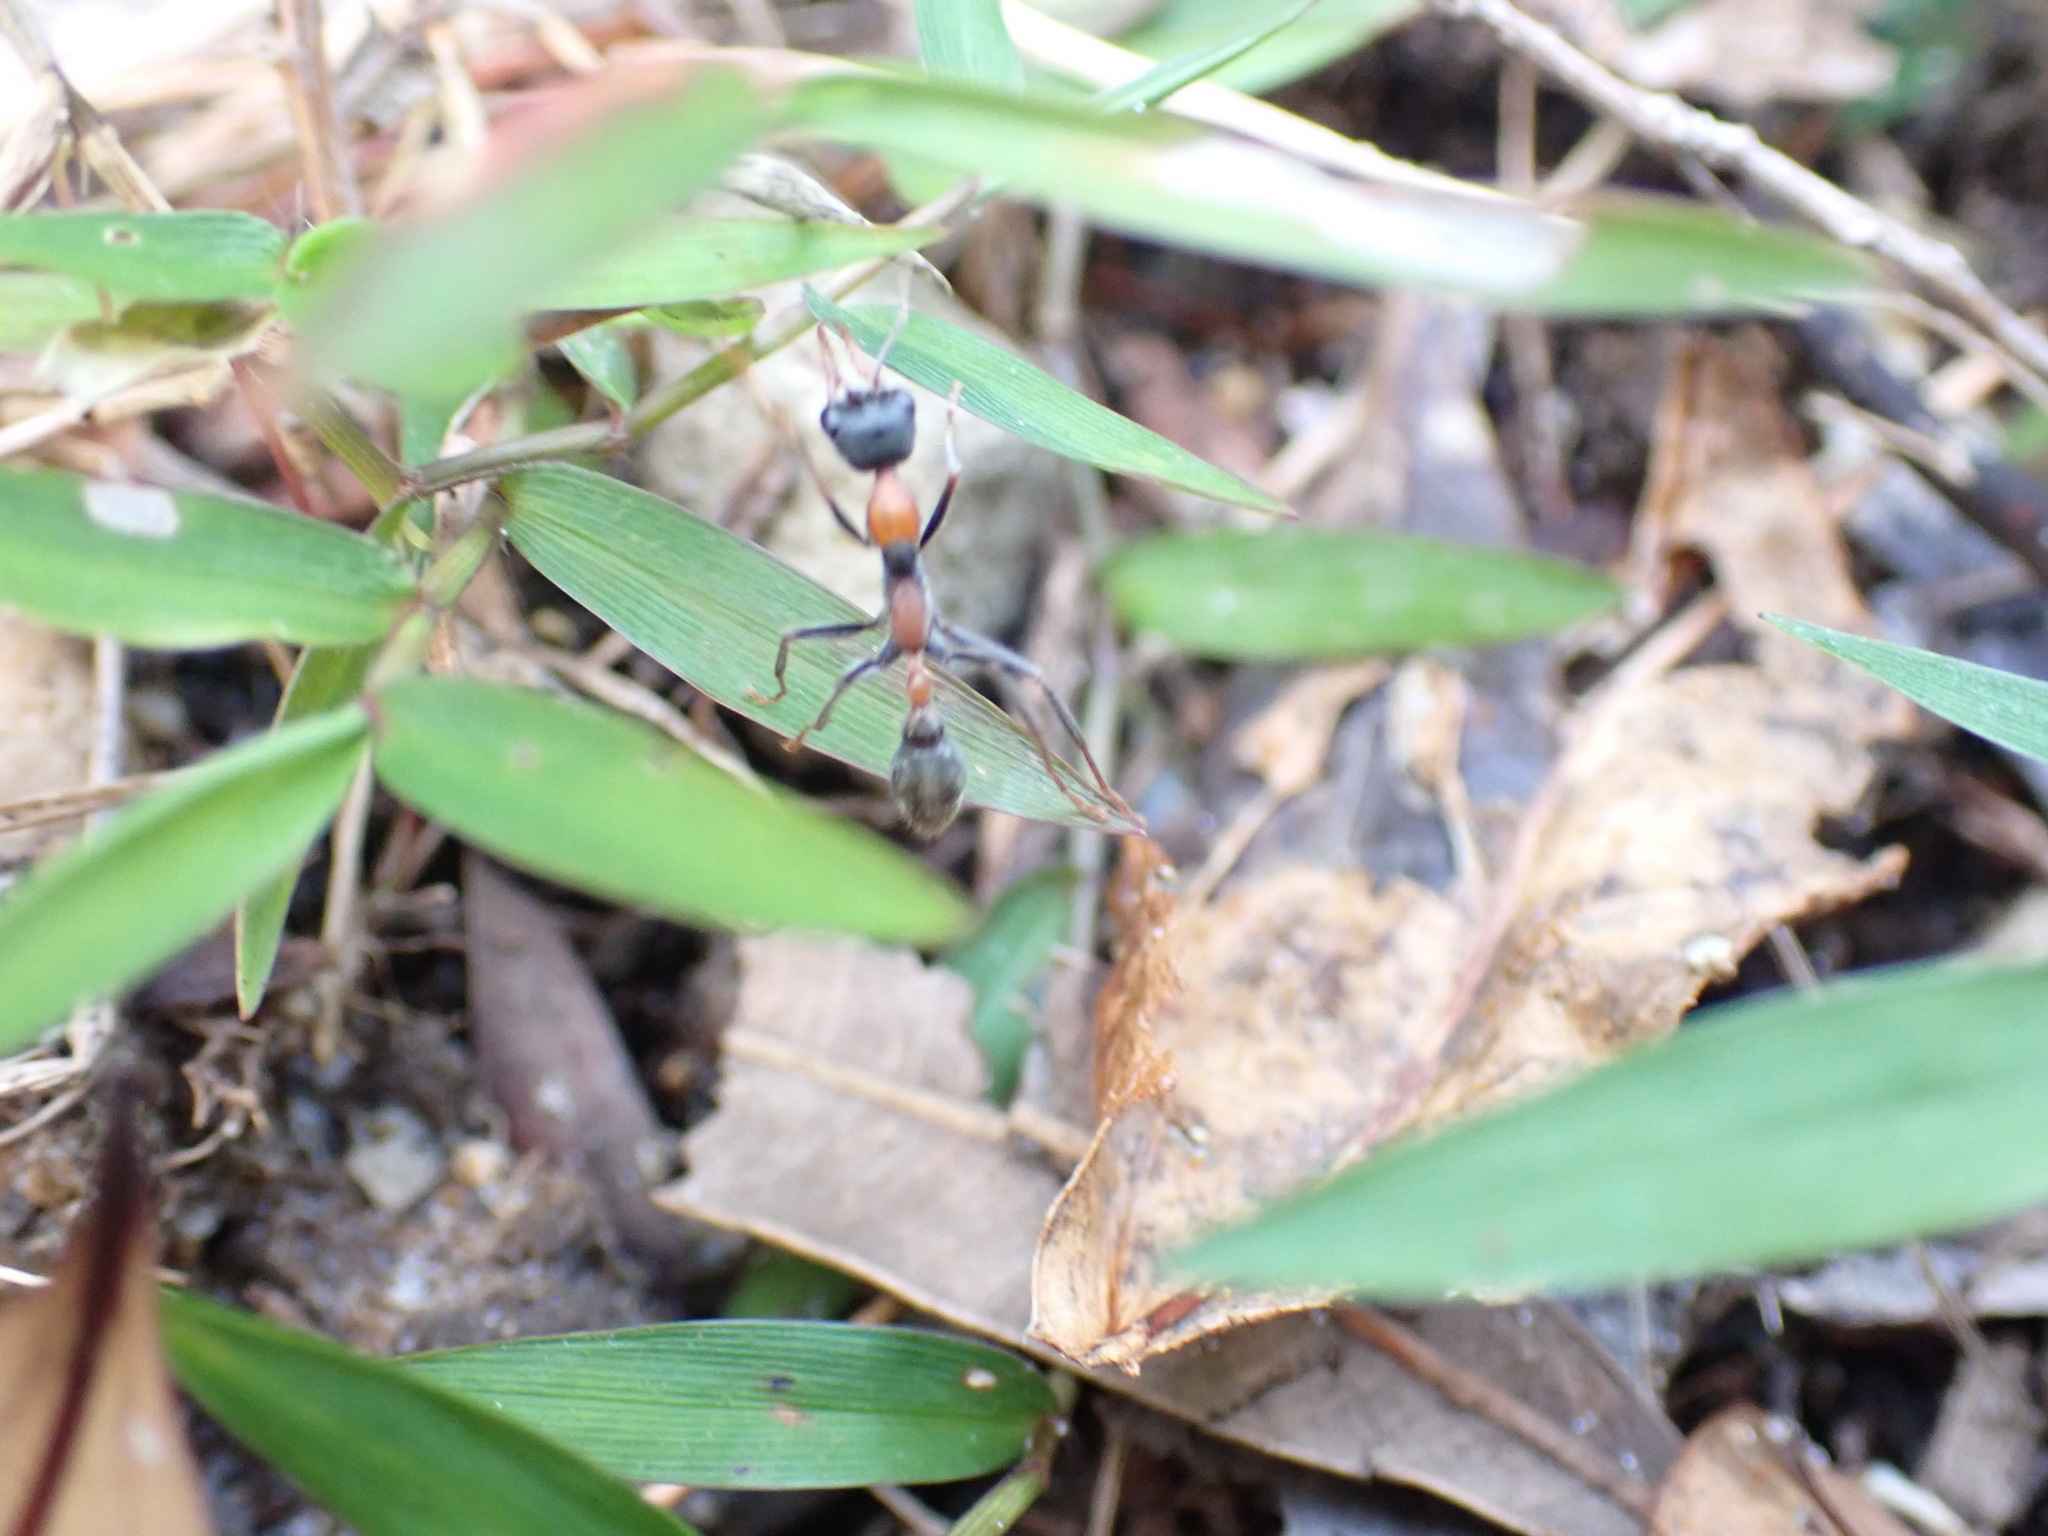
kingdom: Animalia
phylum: Arthropoda
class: Insecta
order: Hymenoptera
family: Formicidae
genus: Myrmecia
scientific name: Myrmecia nigrocincta
